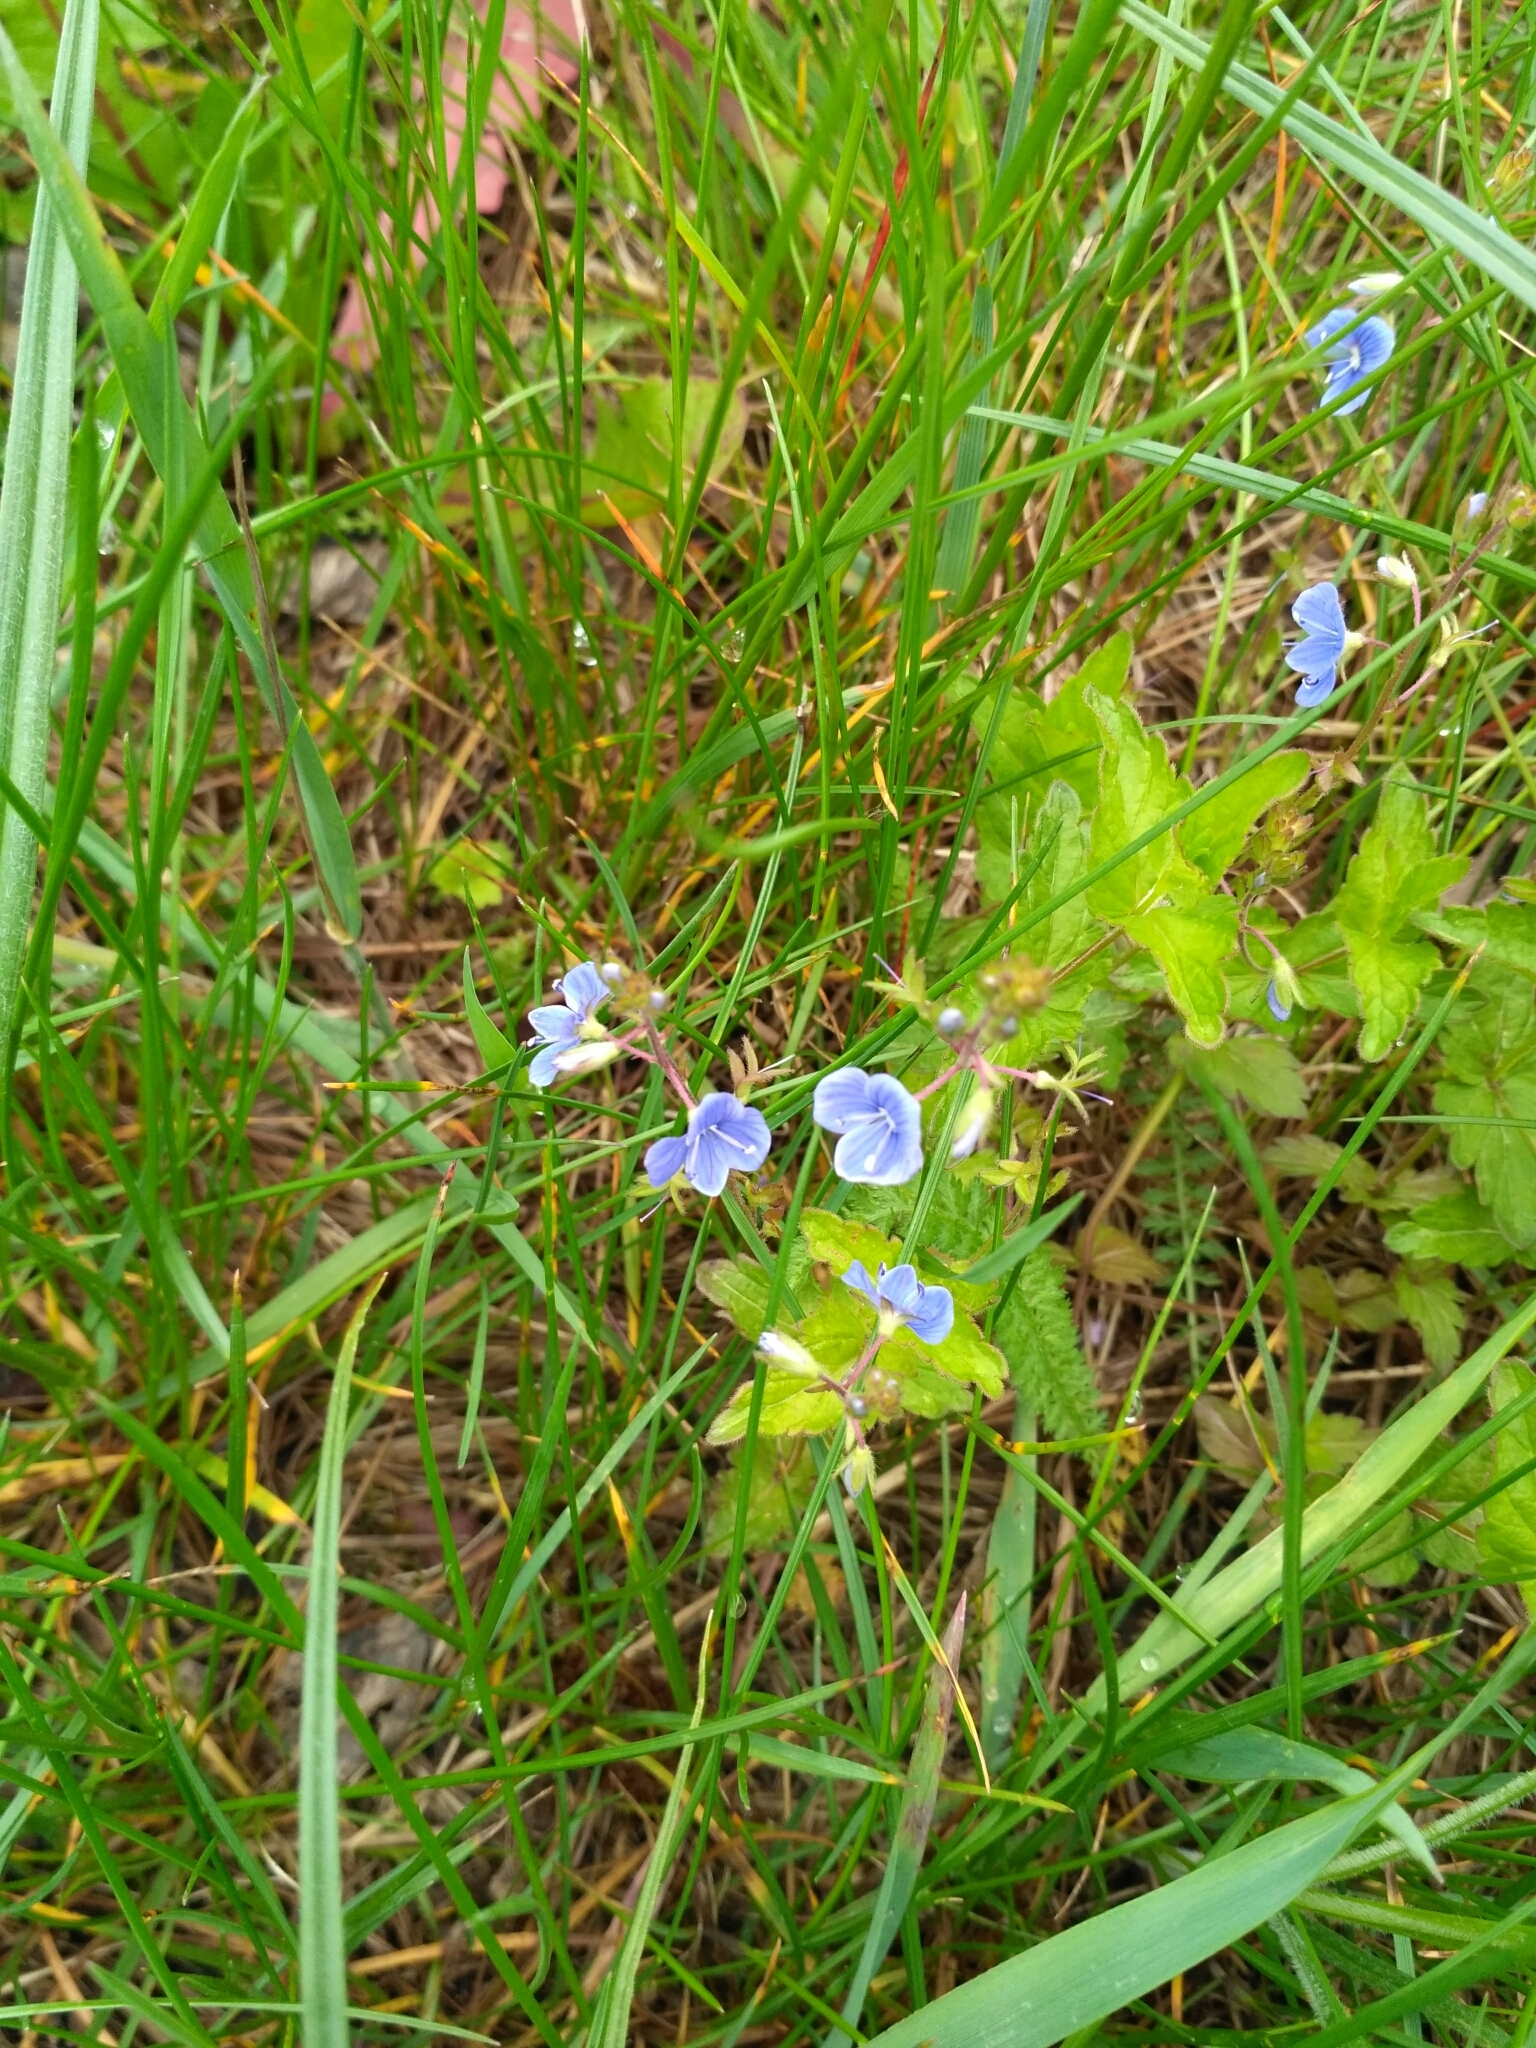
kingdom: Plantae
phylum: Tracheophyta
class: Magnoliopsida
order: Lamiales
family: Plantaginaceae
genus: Veronica
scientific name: Veronica chamaedrys
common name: Germander speedwell
